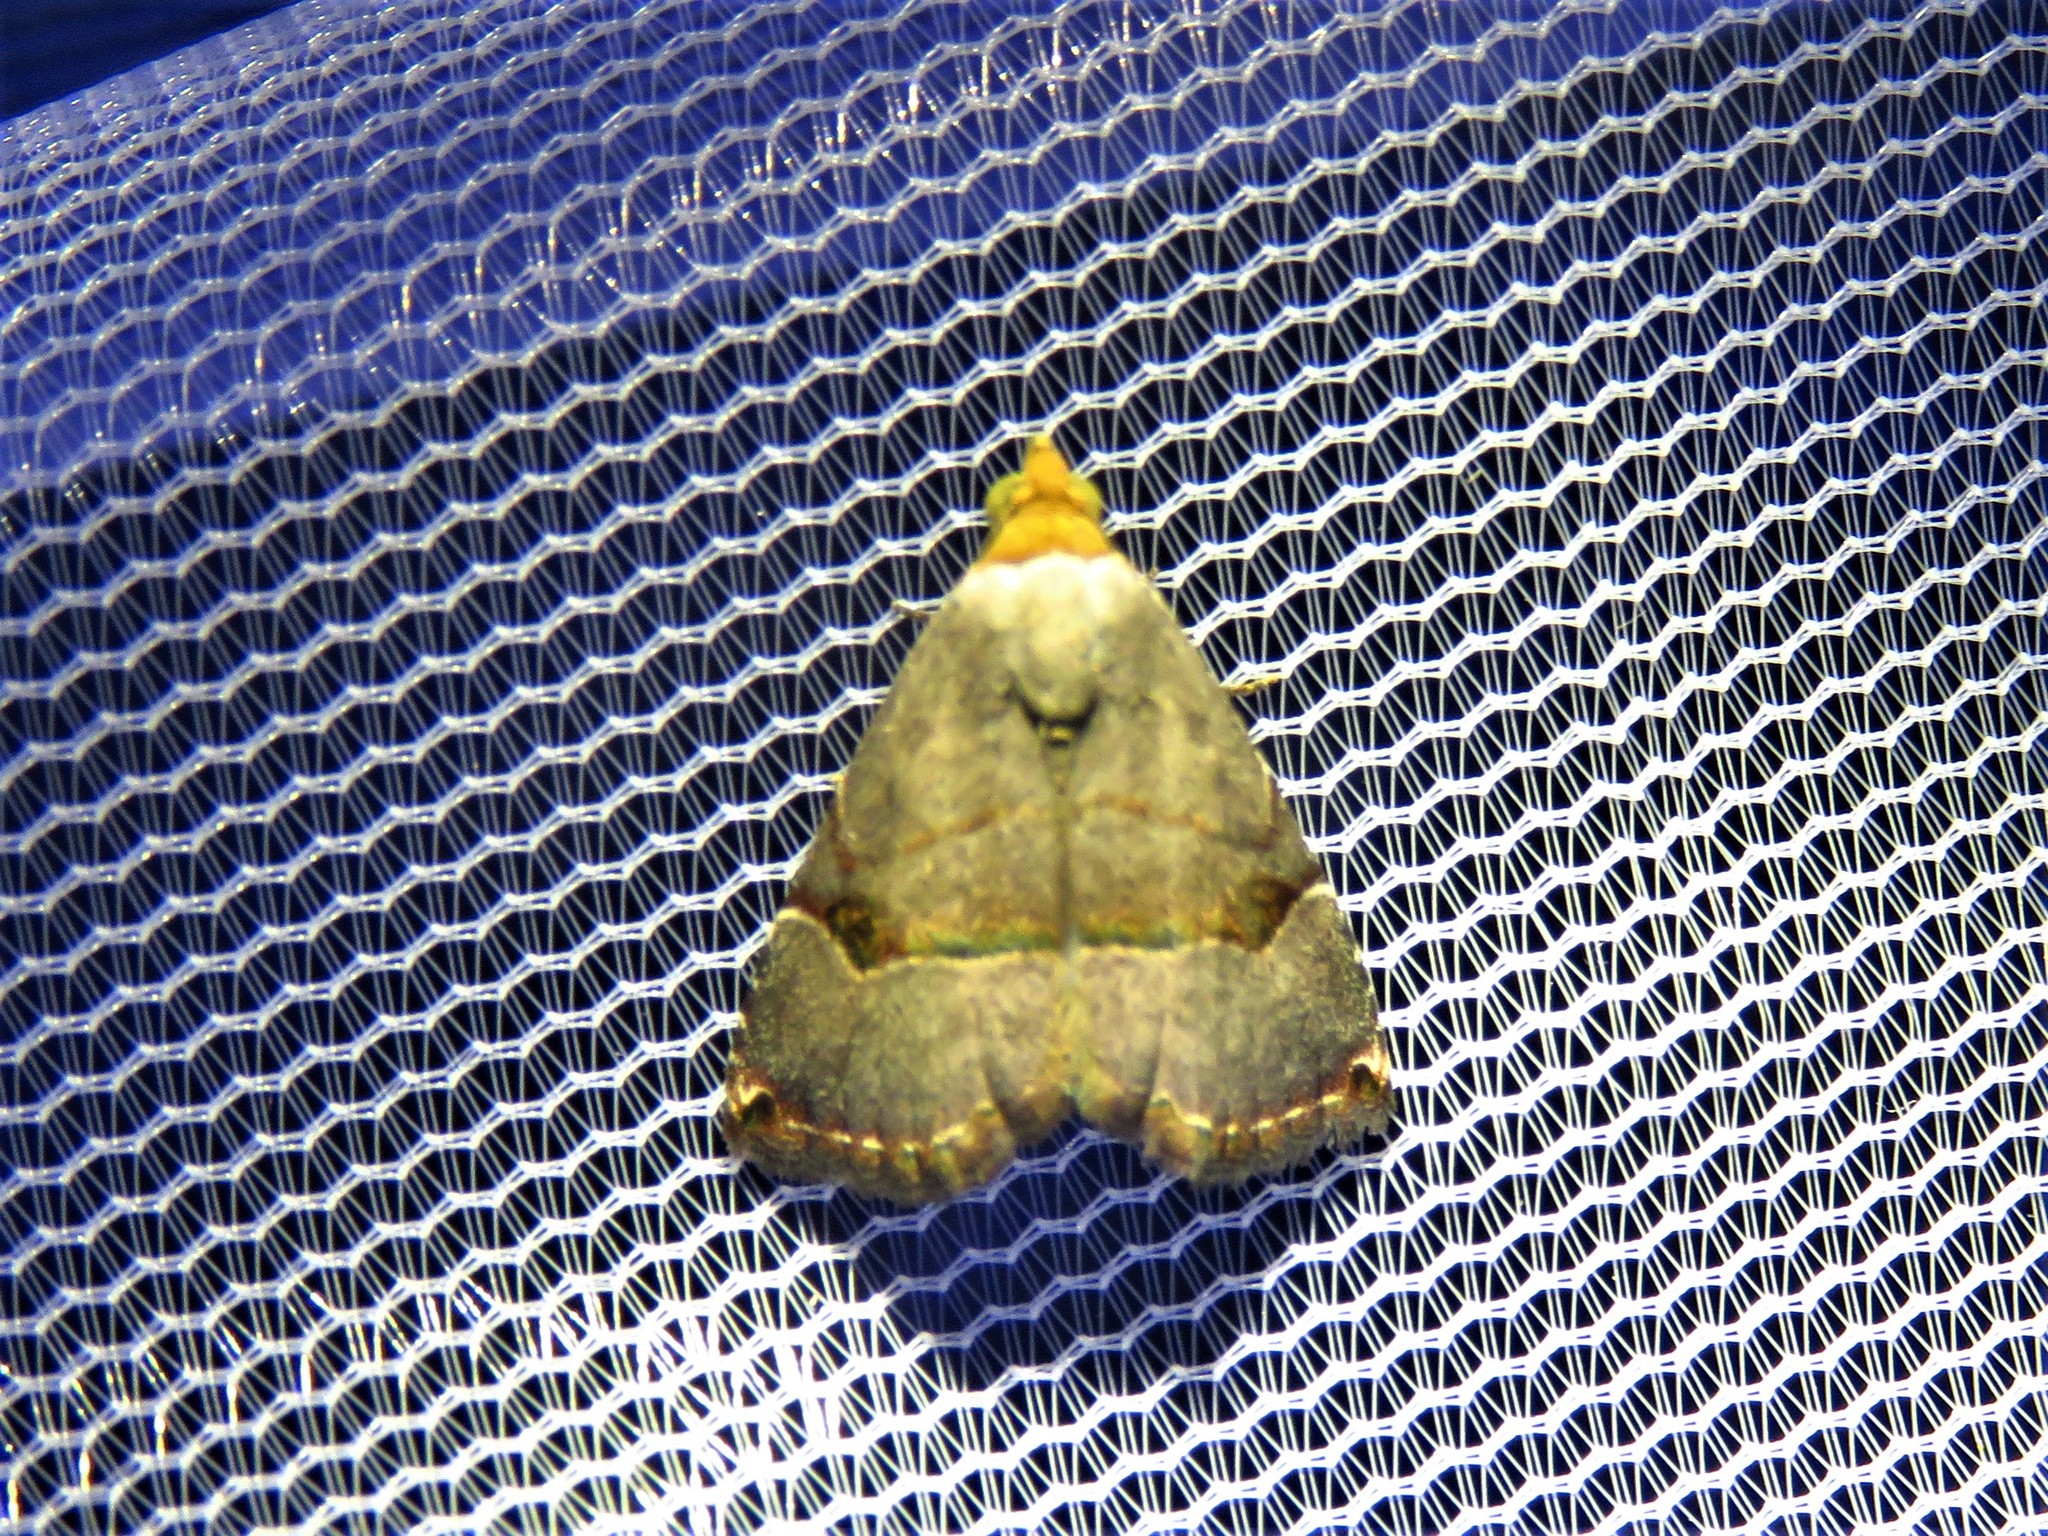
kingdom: Animalia
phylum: Arthropoda
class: Insecta
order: Lepidoptera
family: Noctuidae
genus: Abacena
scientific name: Abacena mundula
